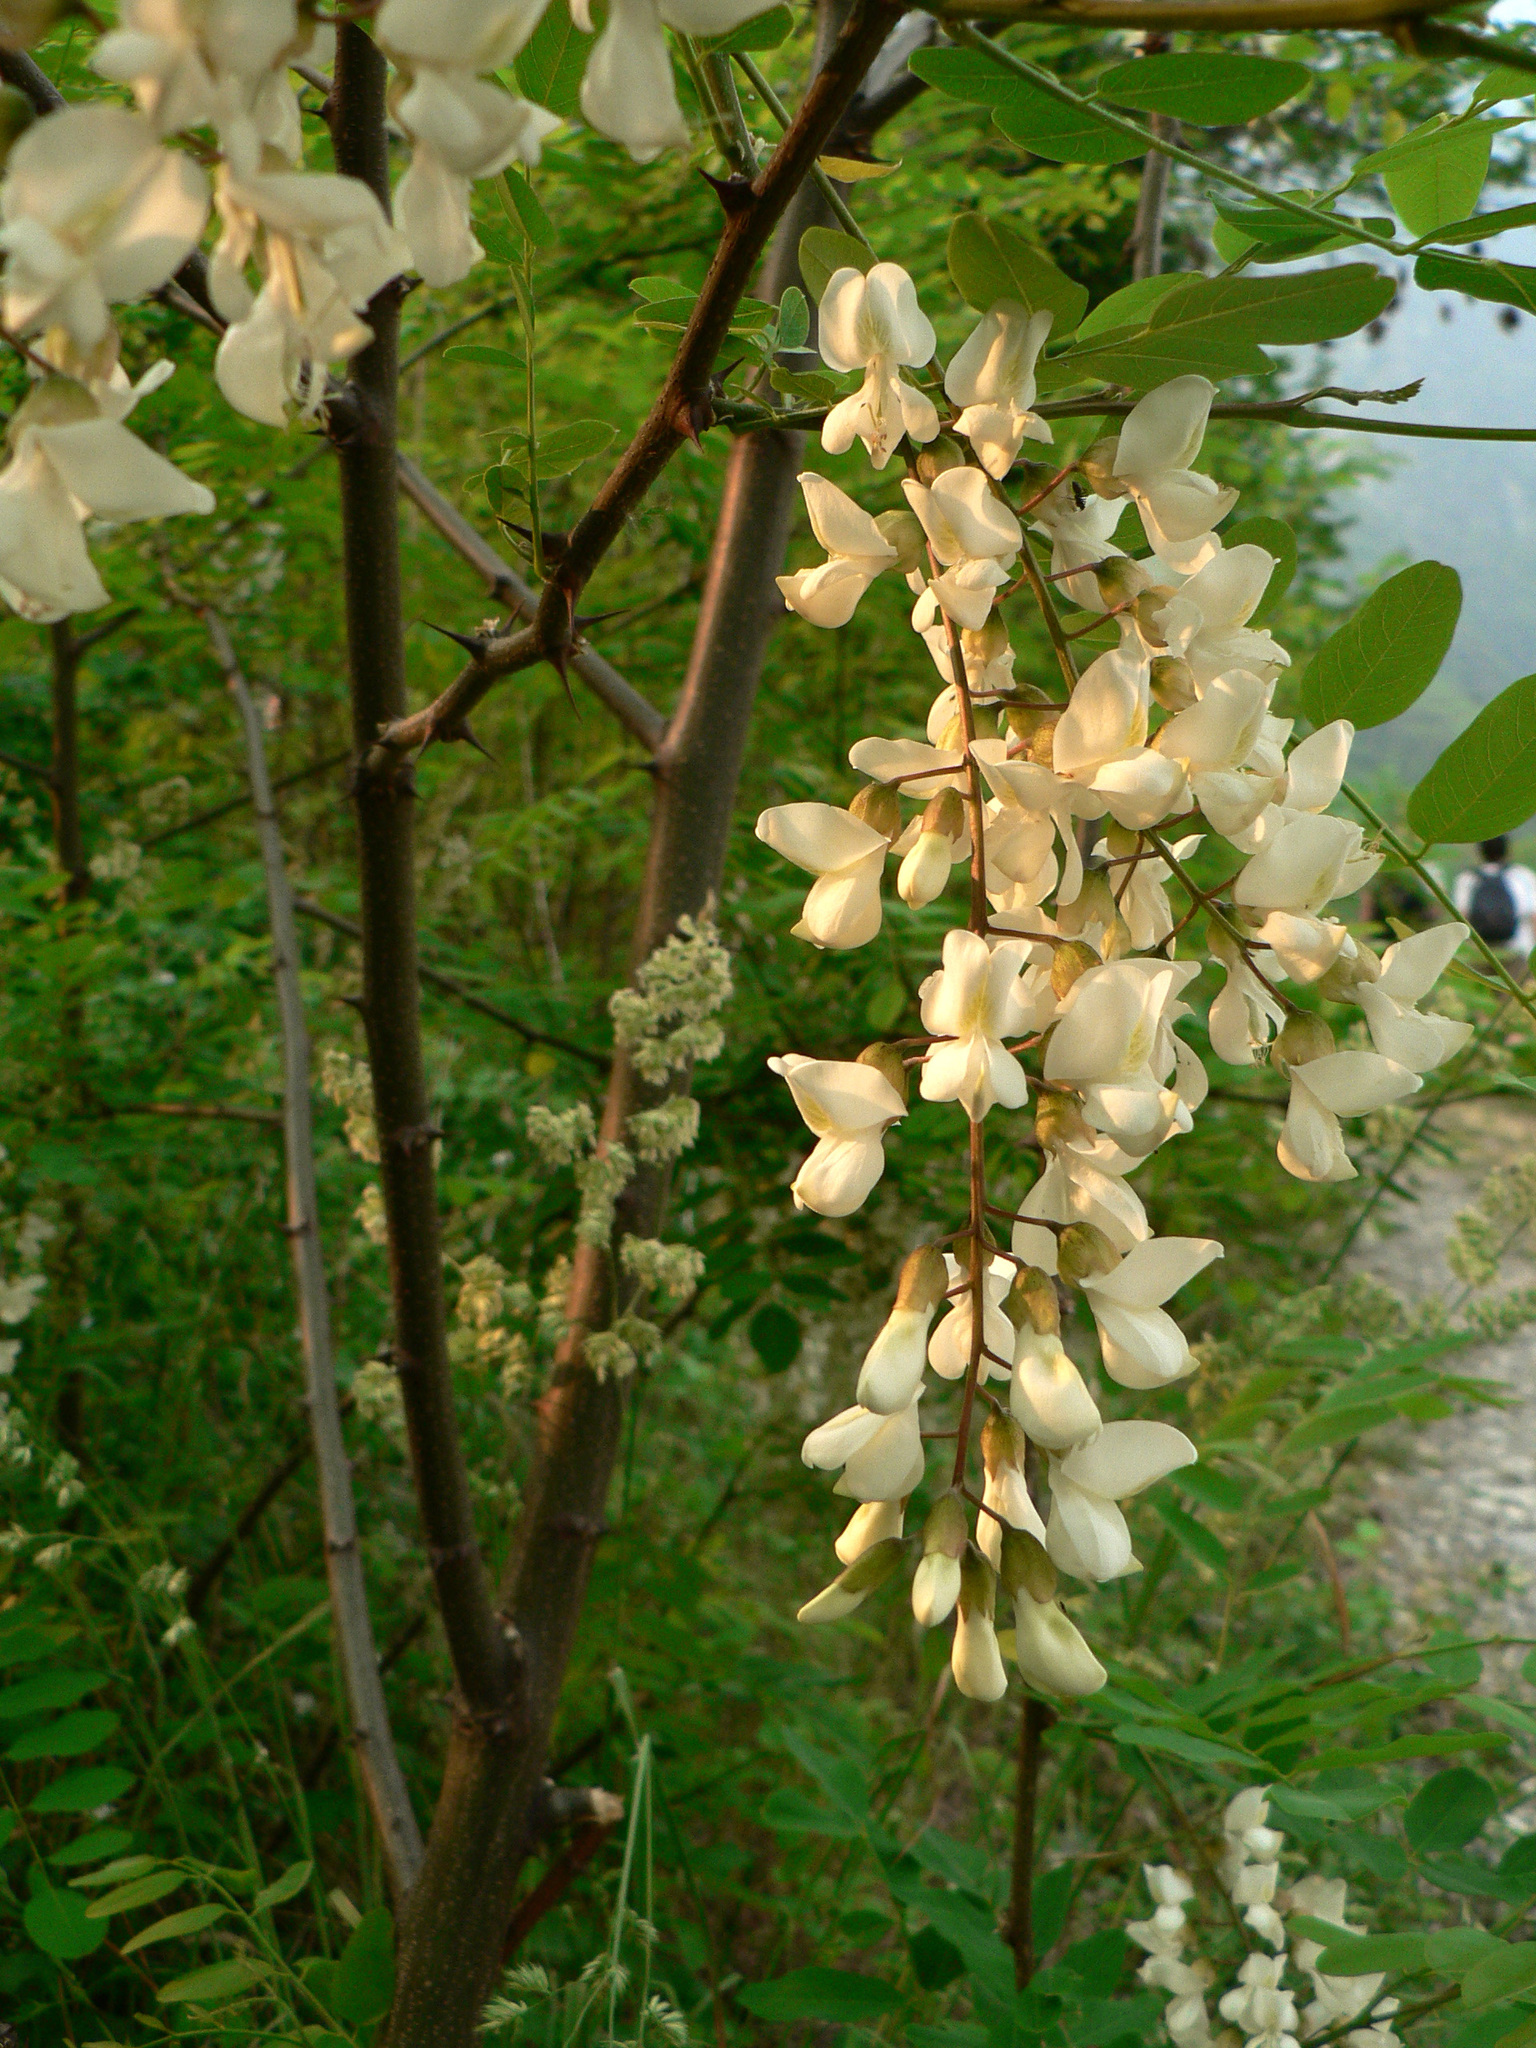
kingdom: Plantae
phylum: Tracheophyta
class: Magnoliopsida
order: Fabales
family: Fabaceae
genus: Robinia
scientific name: Robinia pseudoacacia
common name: Black locust
